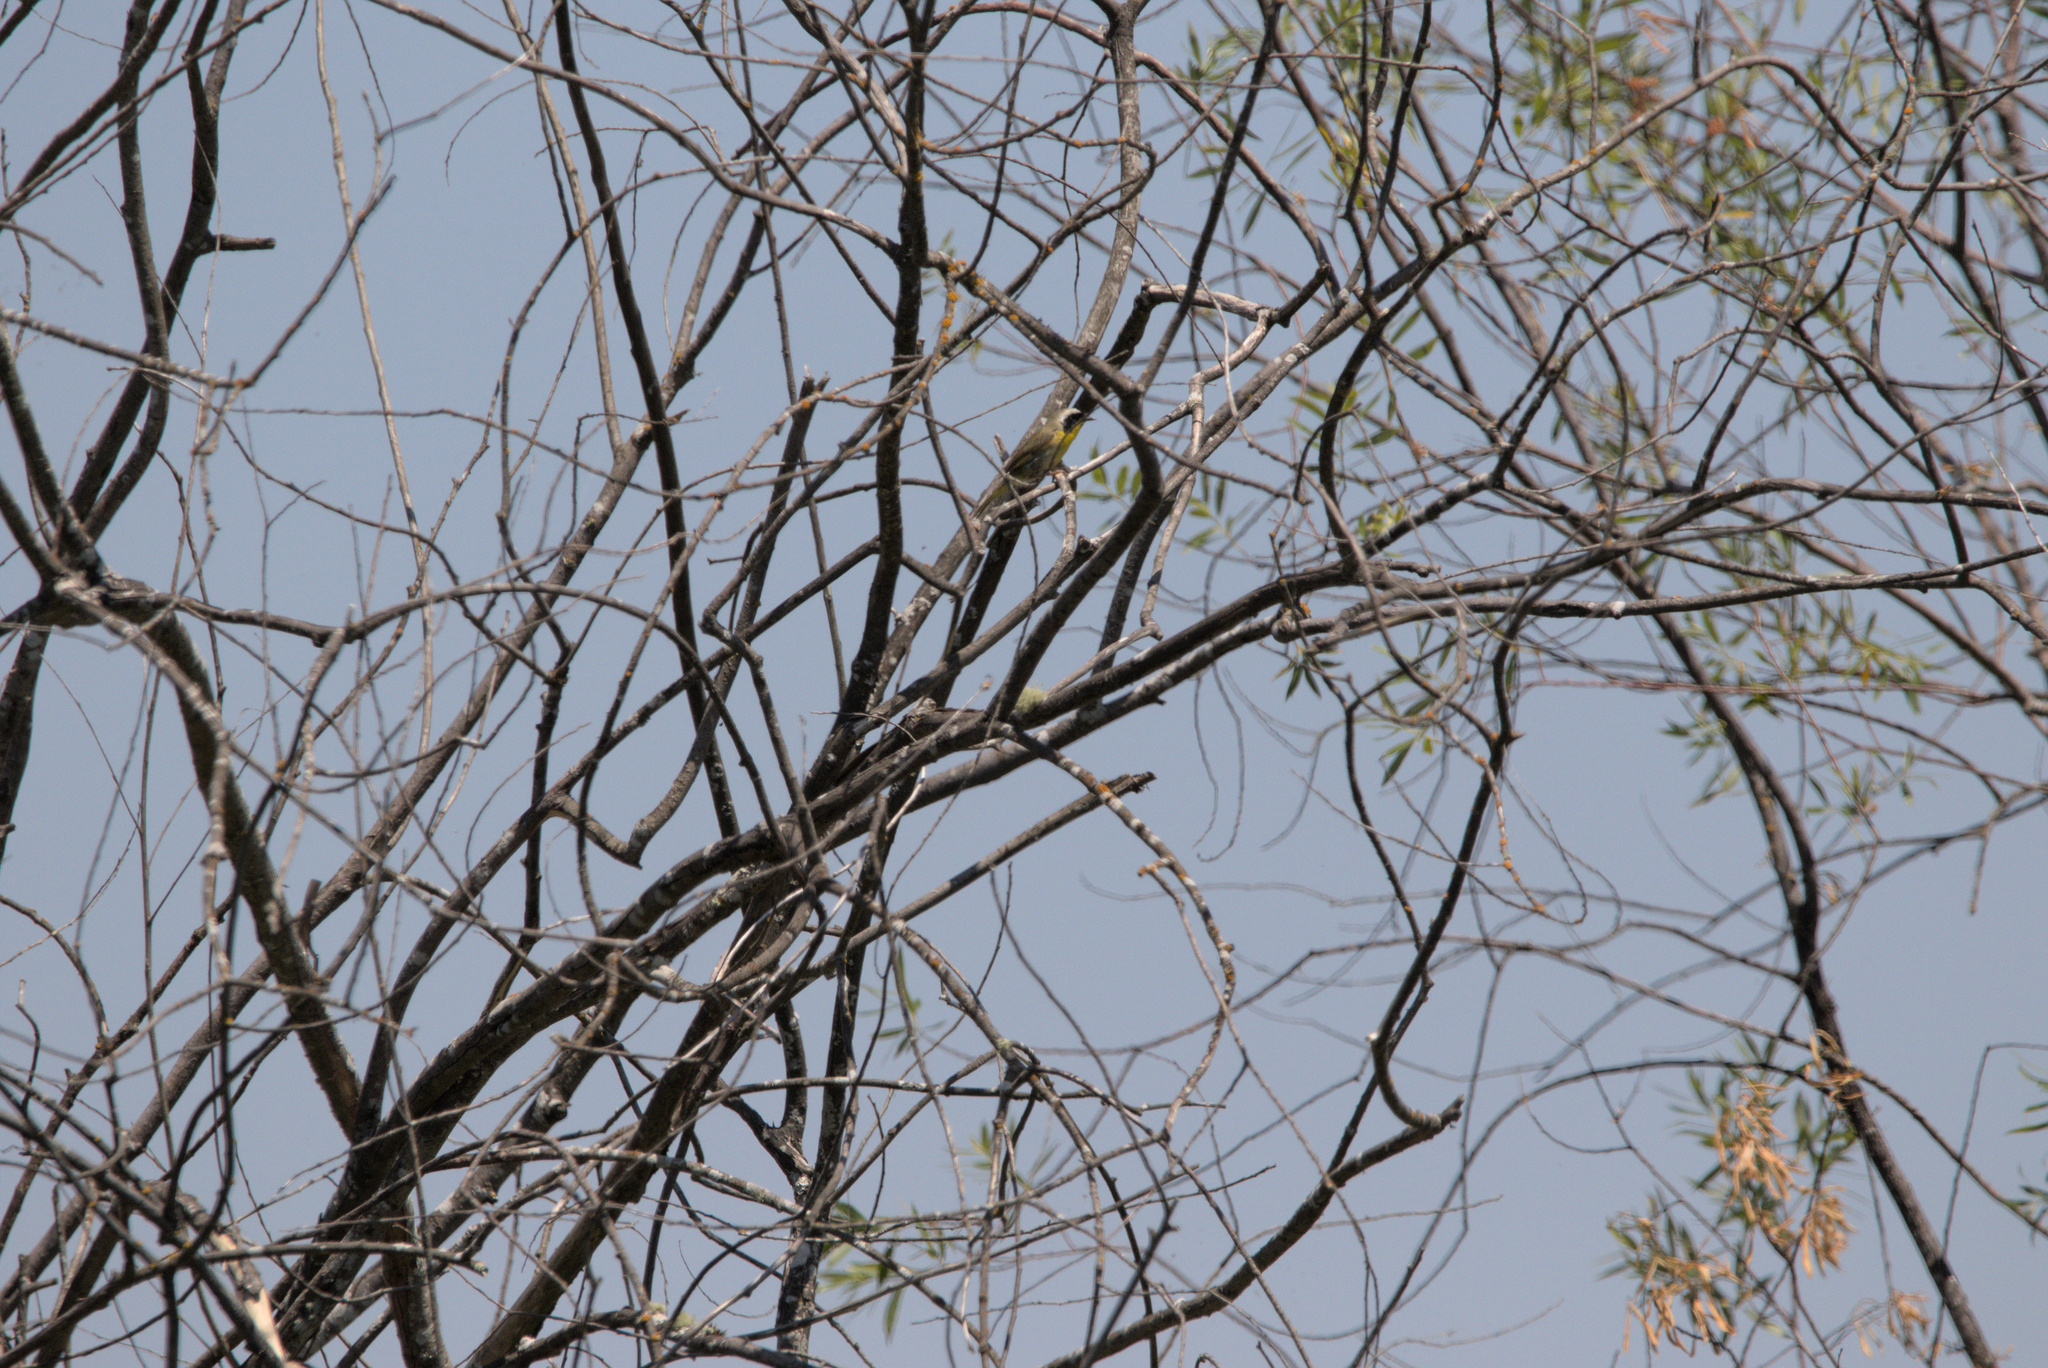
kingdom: Animalia
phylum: Chordata
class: Aves
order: Passeriformes
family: Parulidae
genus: Geothlypis
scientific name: Geothlypis trichas
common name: Common yellowthroat
